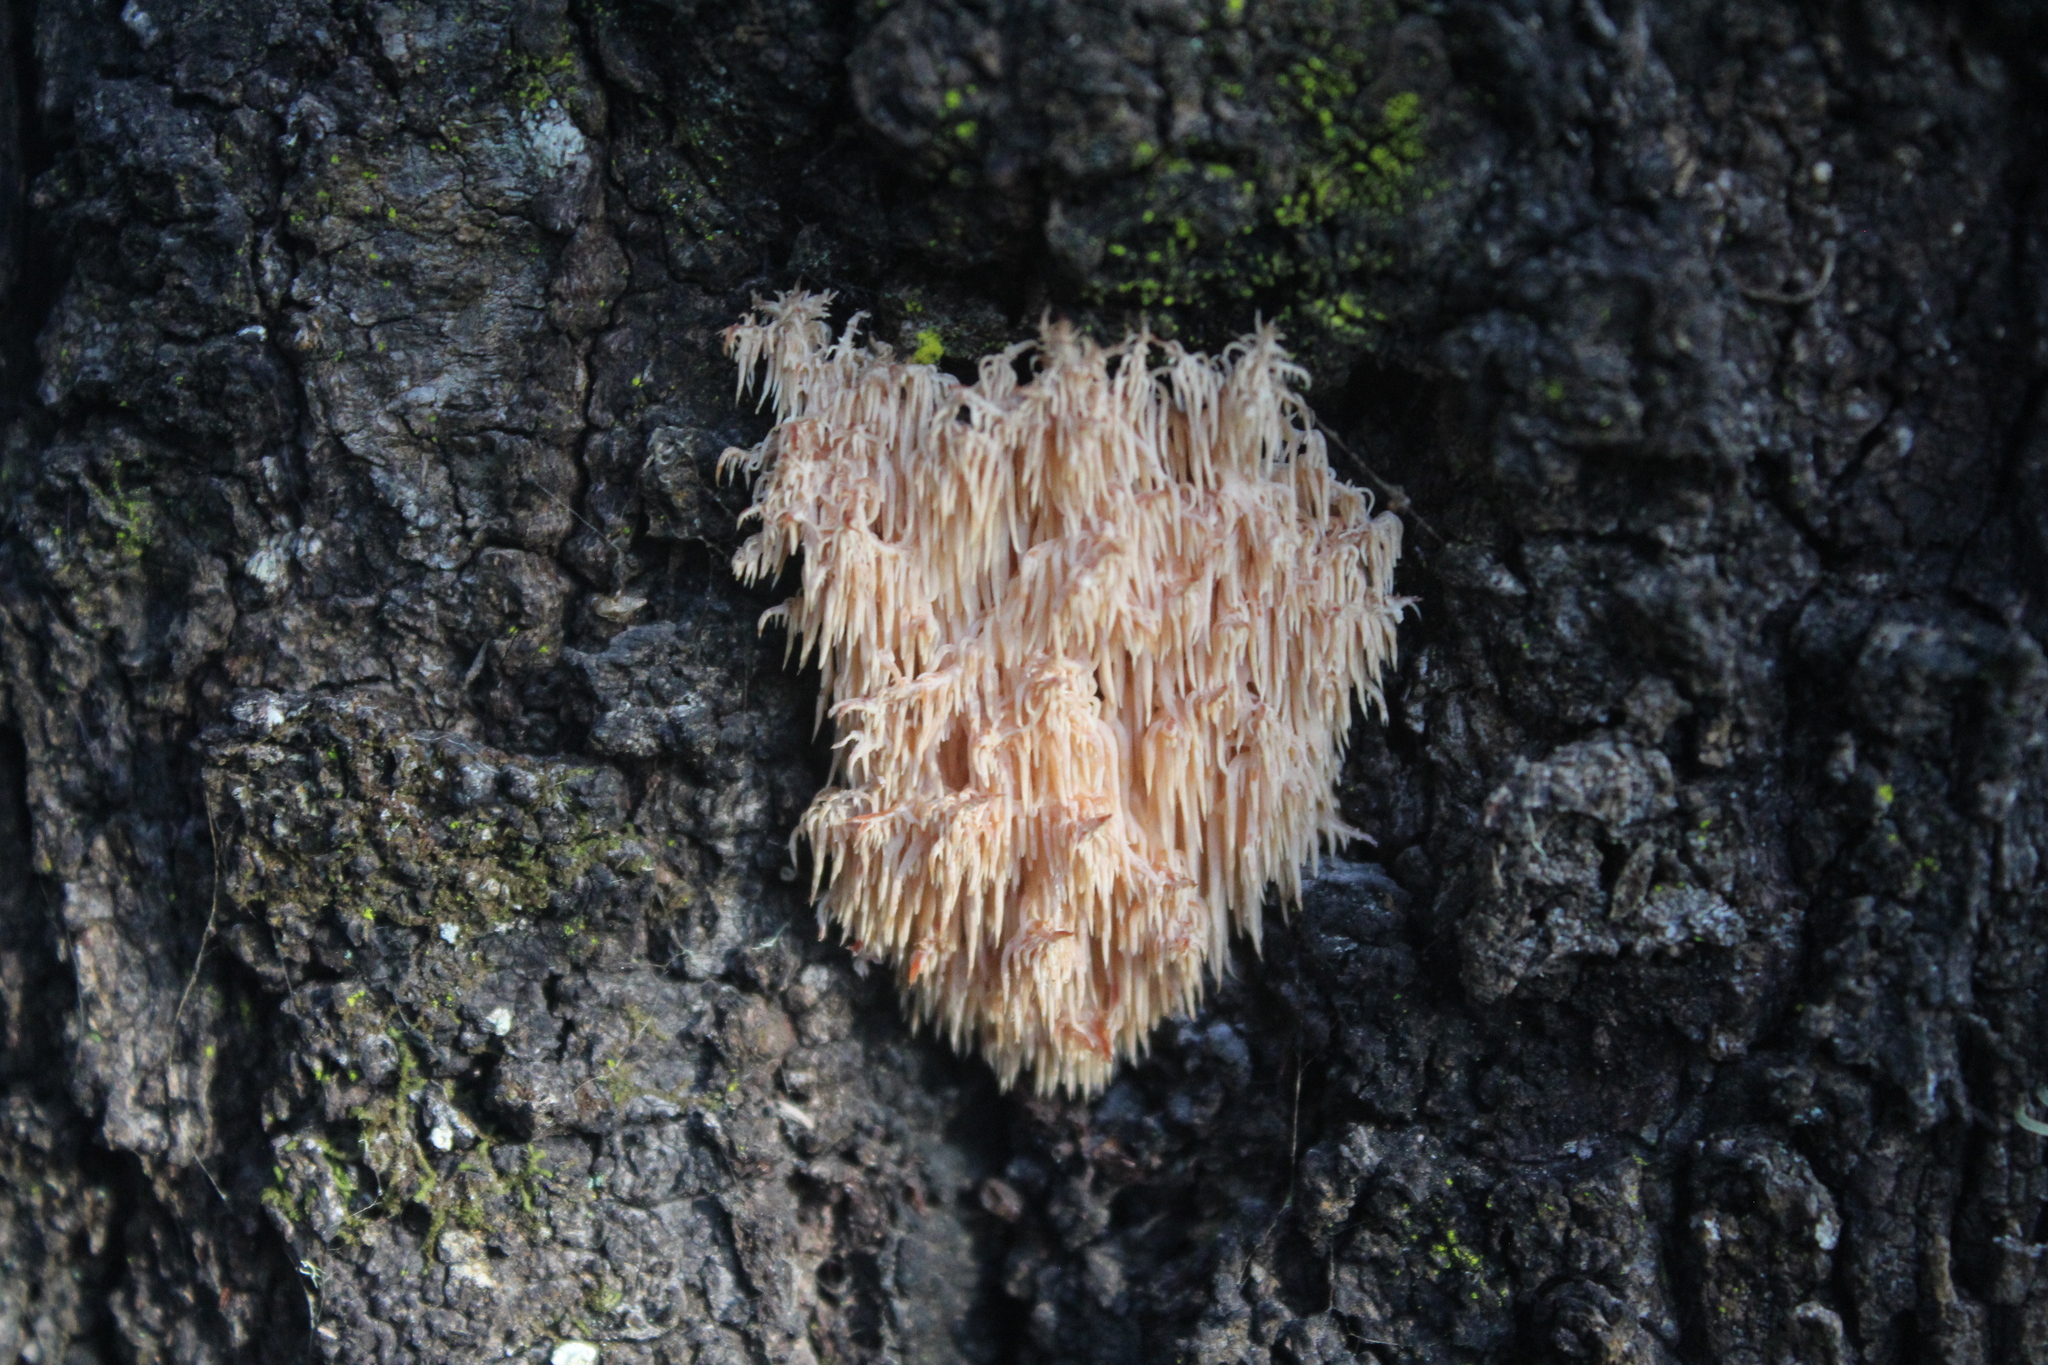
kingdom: Fungi
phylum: Basidiomycota
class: Agaricomycetes
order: Russulales
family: Hericiaceae
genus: Hericium
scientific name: Hericium novae-zealandiae
